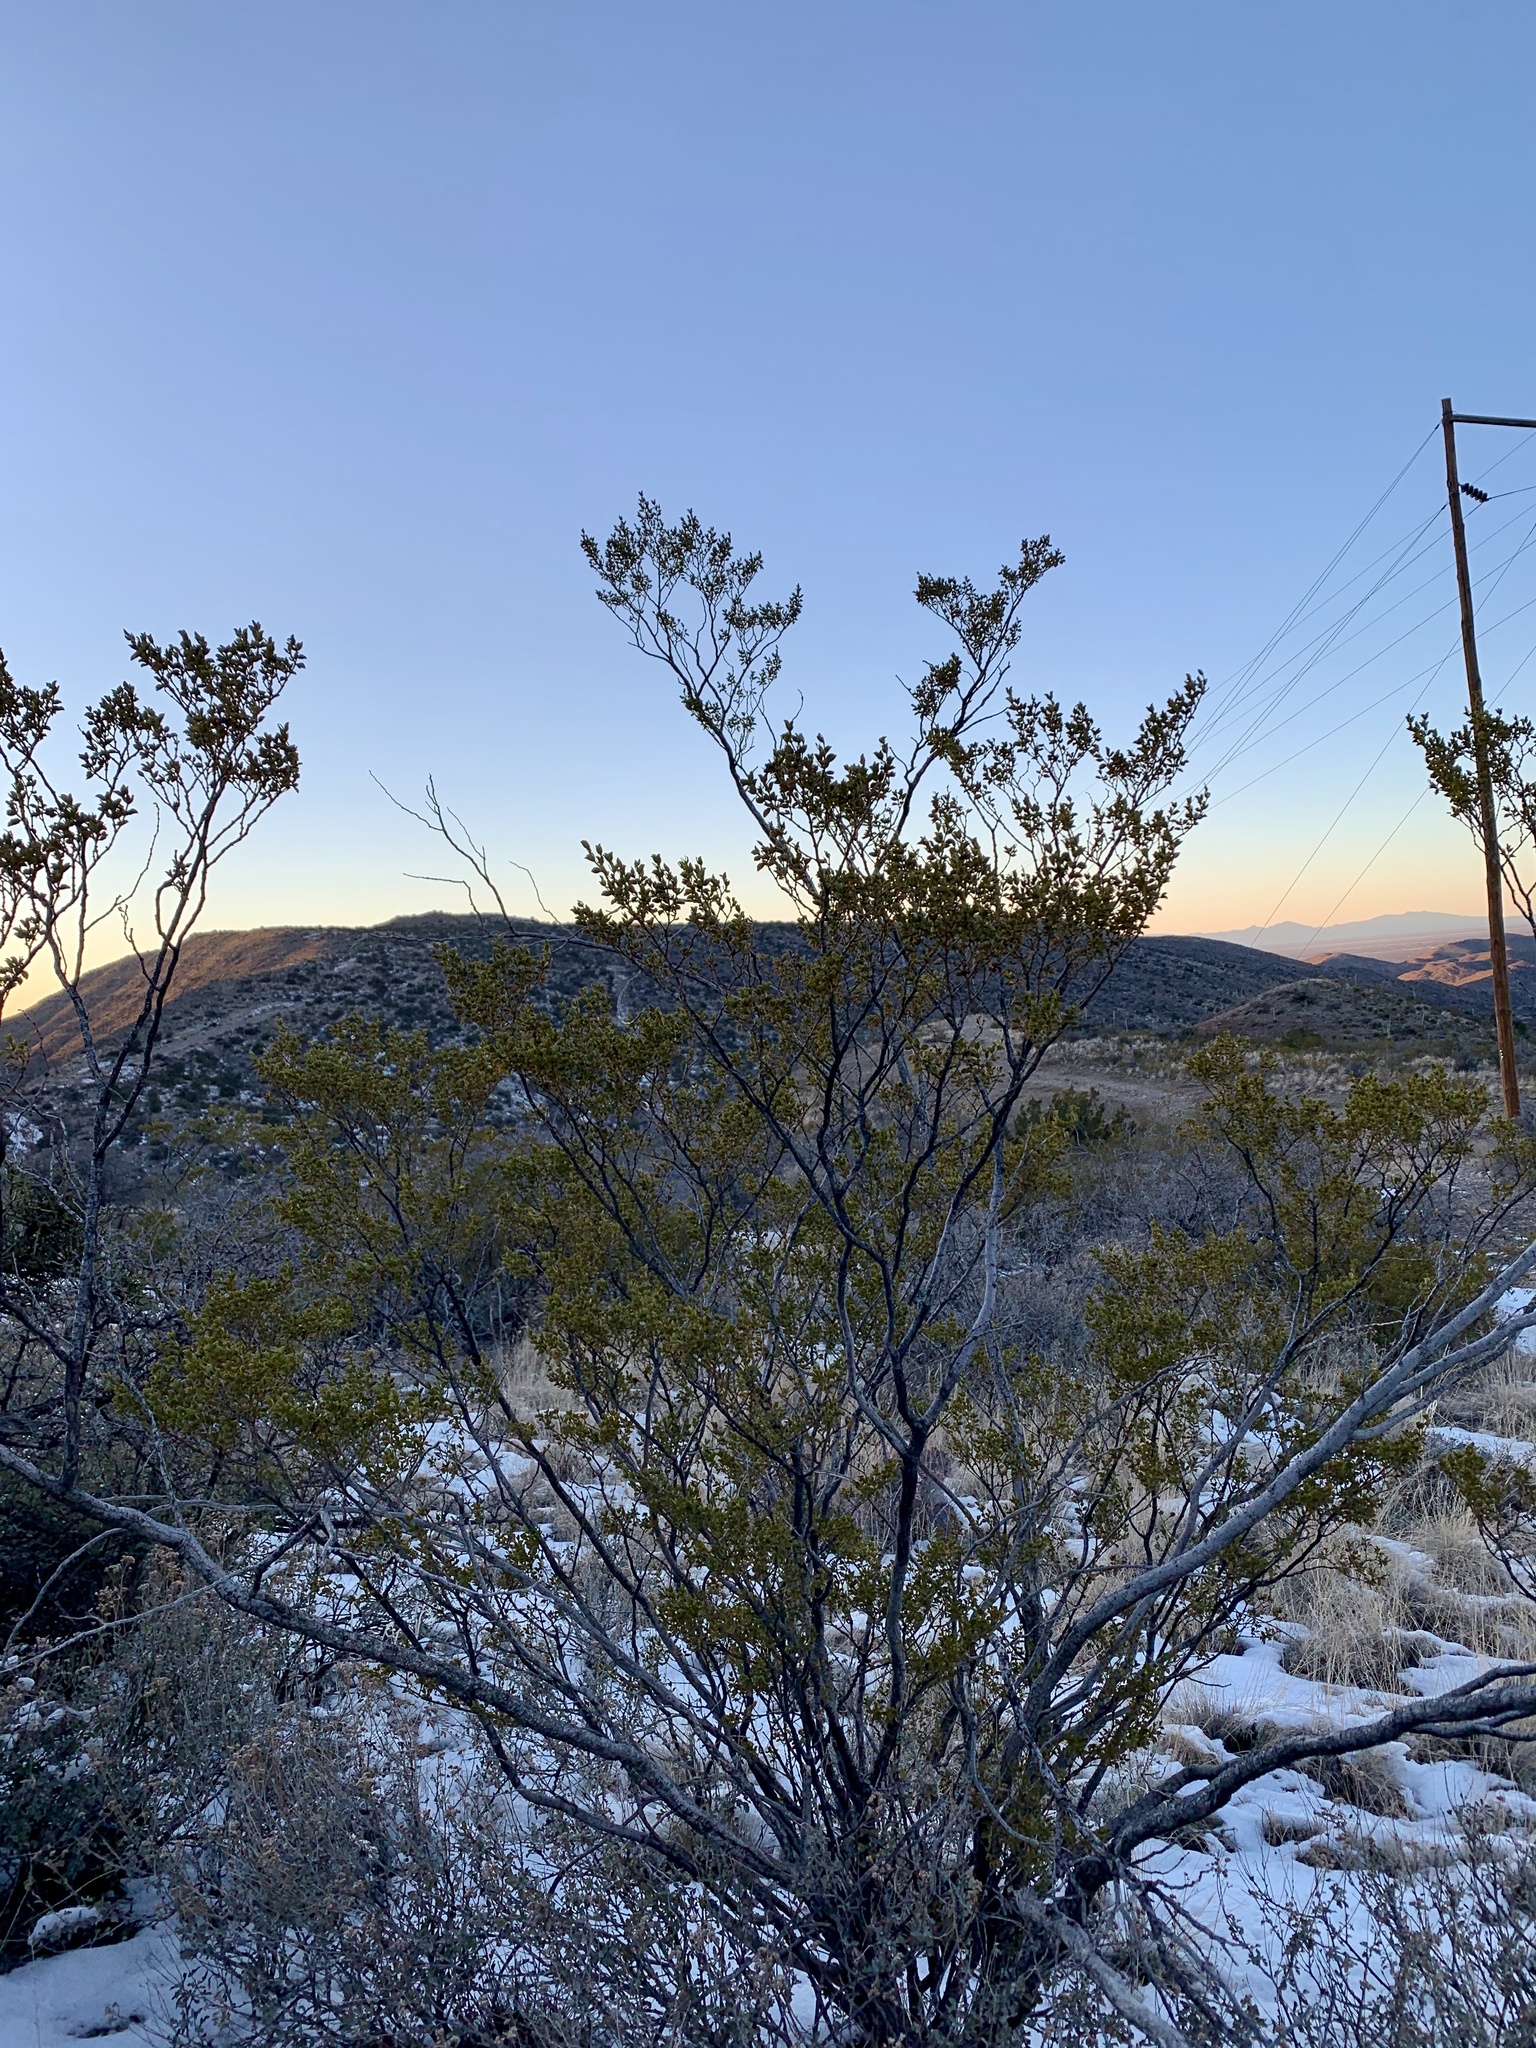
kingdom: Plantae
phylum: Tracheophyta
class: Magnoliopsida
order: Zygophyllales
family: Zygophyllaceae
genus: Larrea
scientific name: Larrea tridentata
